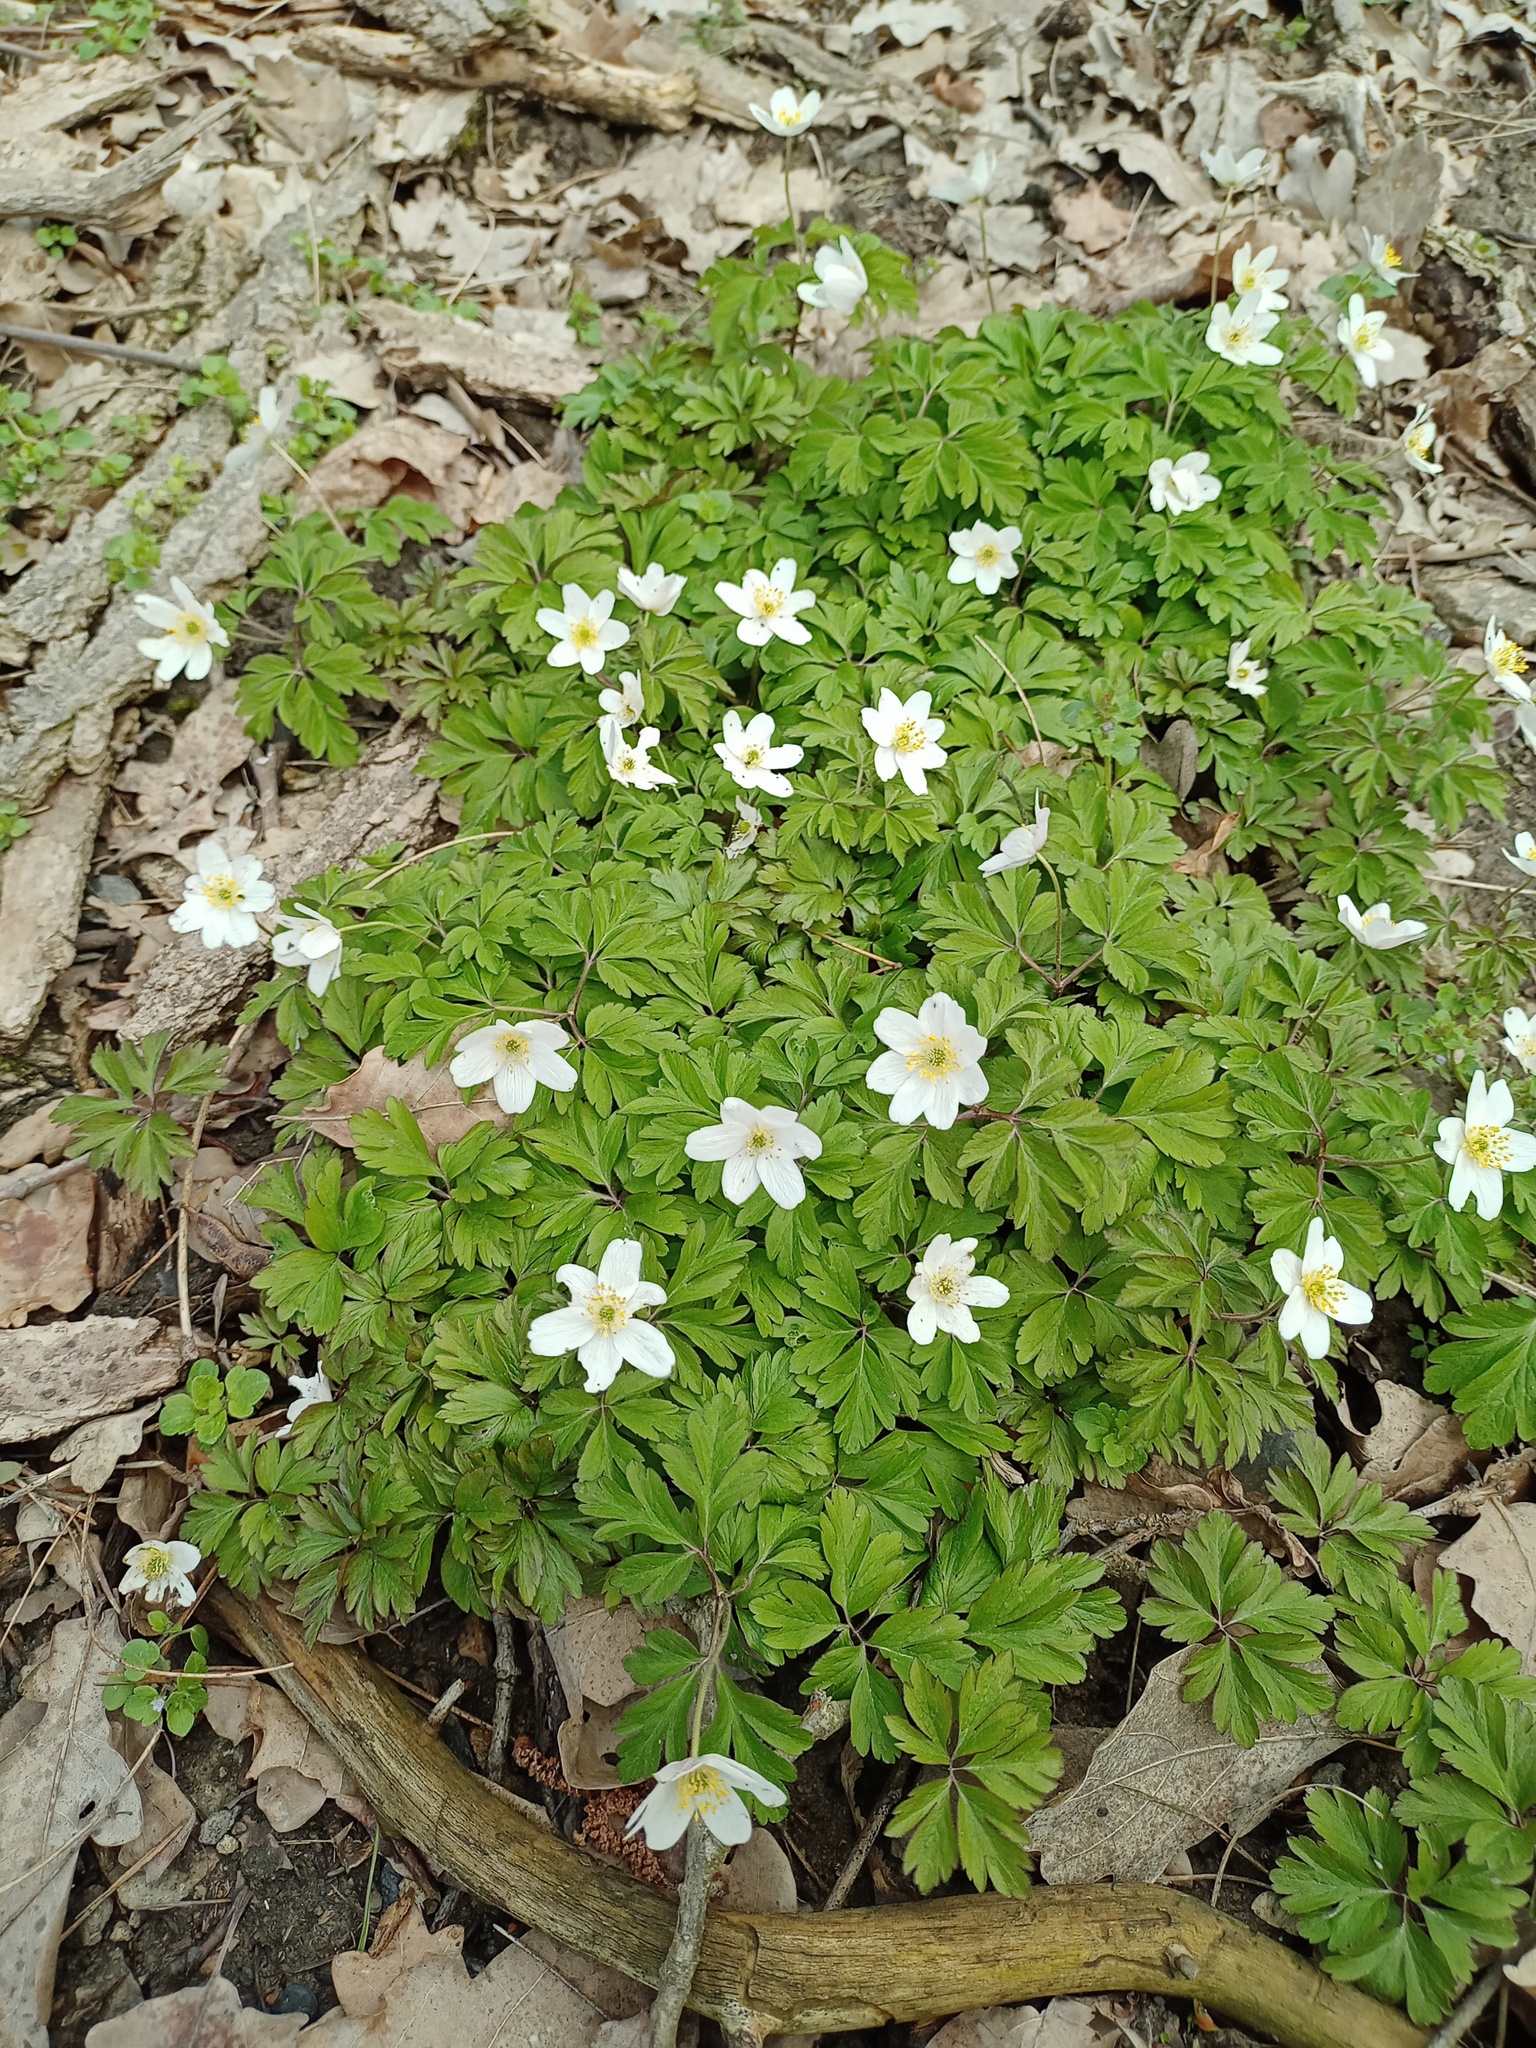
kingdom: Plantae
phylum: Tracheophyta
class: Magnoliopsida
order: Ranunculales
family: Ranunculaceae
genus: Anemone
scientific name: Anemone nemorosa
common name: Wood anemone
